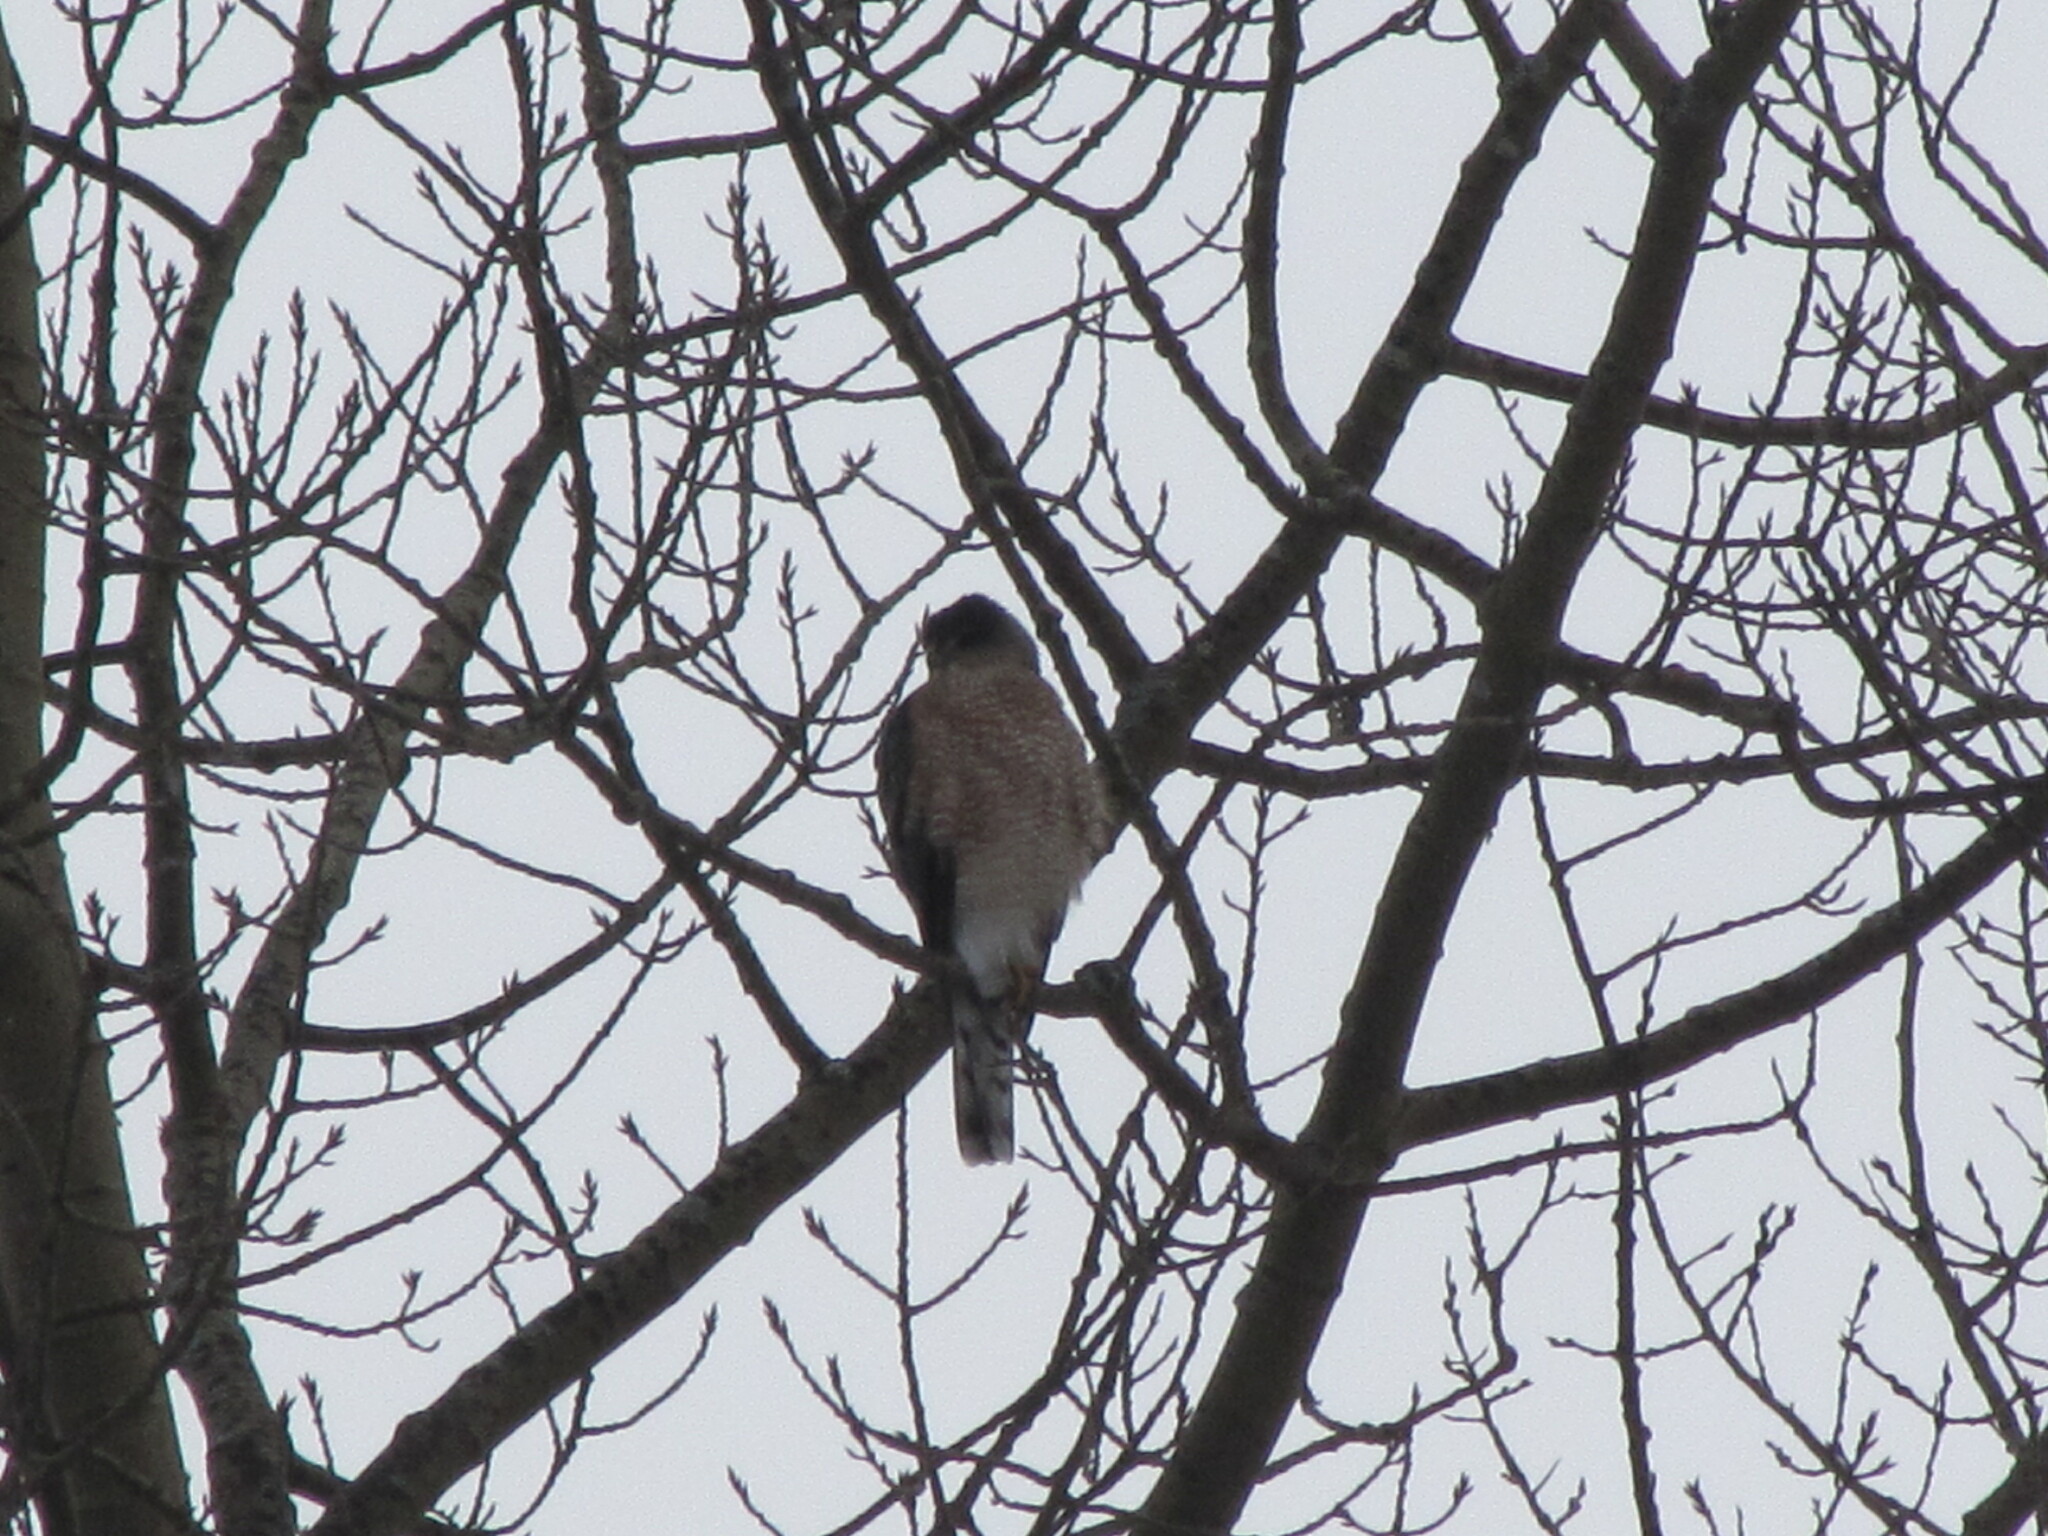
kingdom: Animalia
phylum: Chordata
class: Aves
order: Accipitriformes
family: Accipitridae
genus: Accipiter
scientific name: Accipiter cooperii
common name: Cooper's hawk
